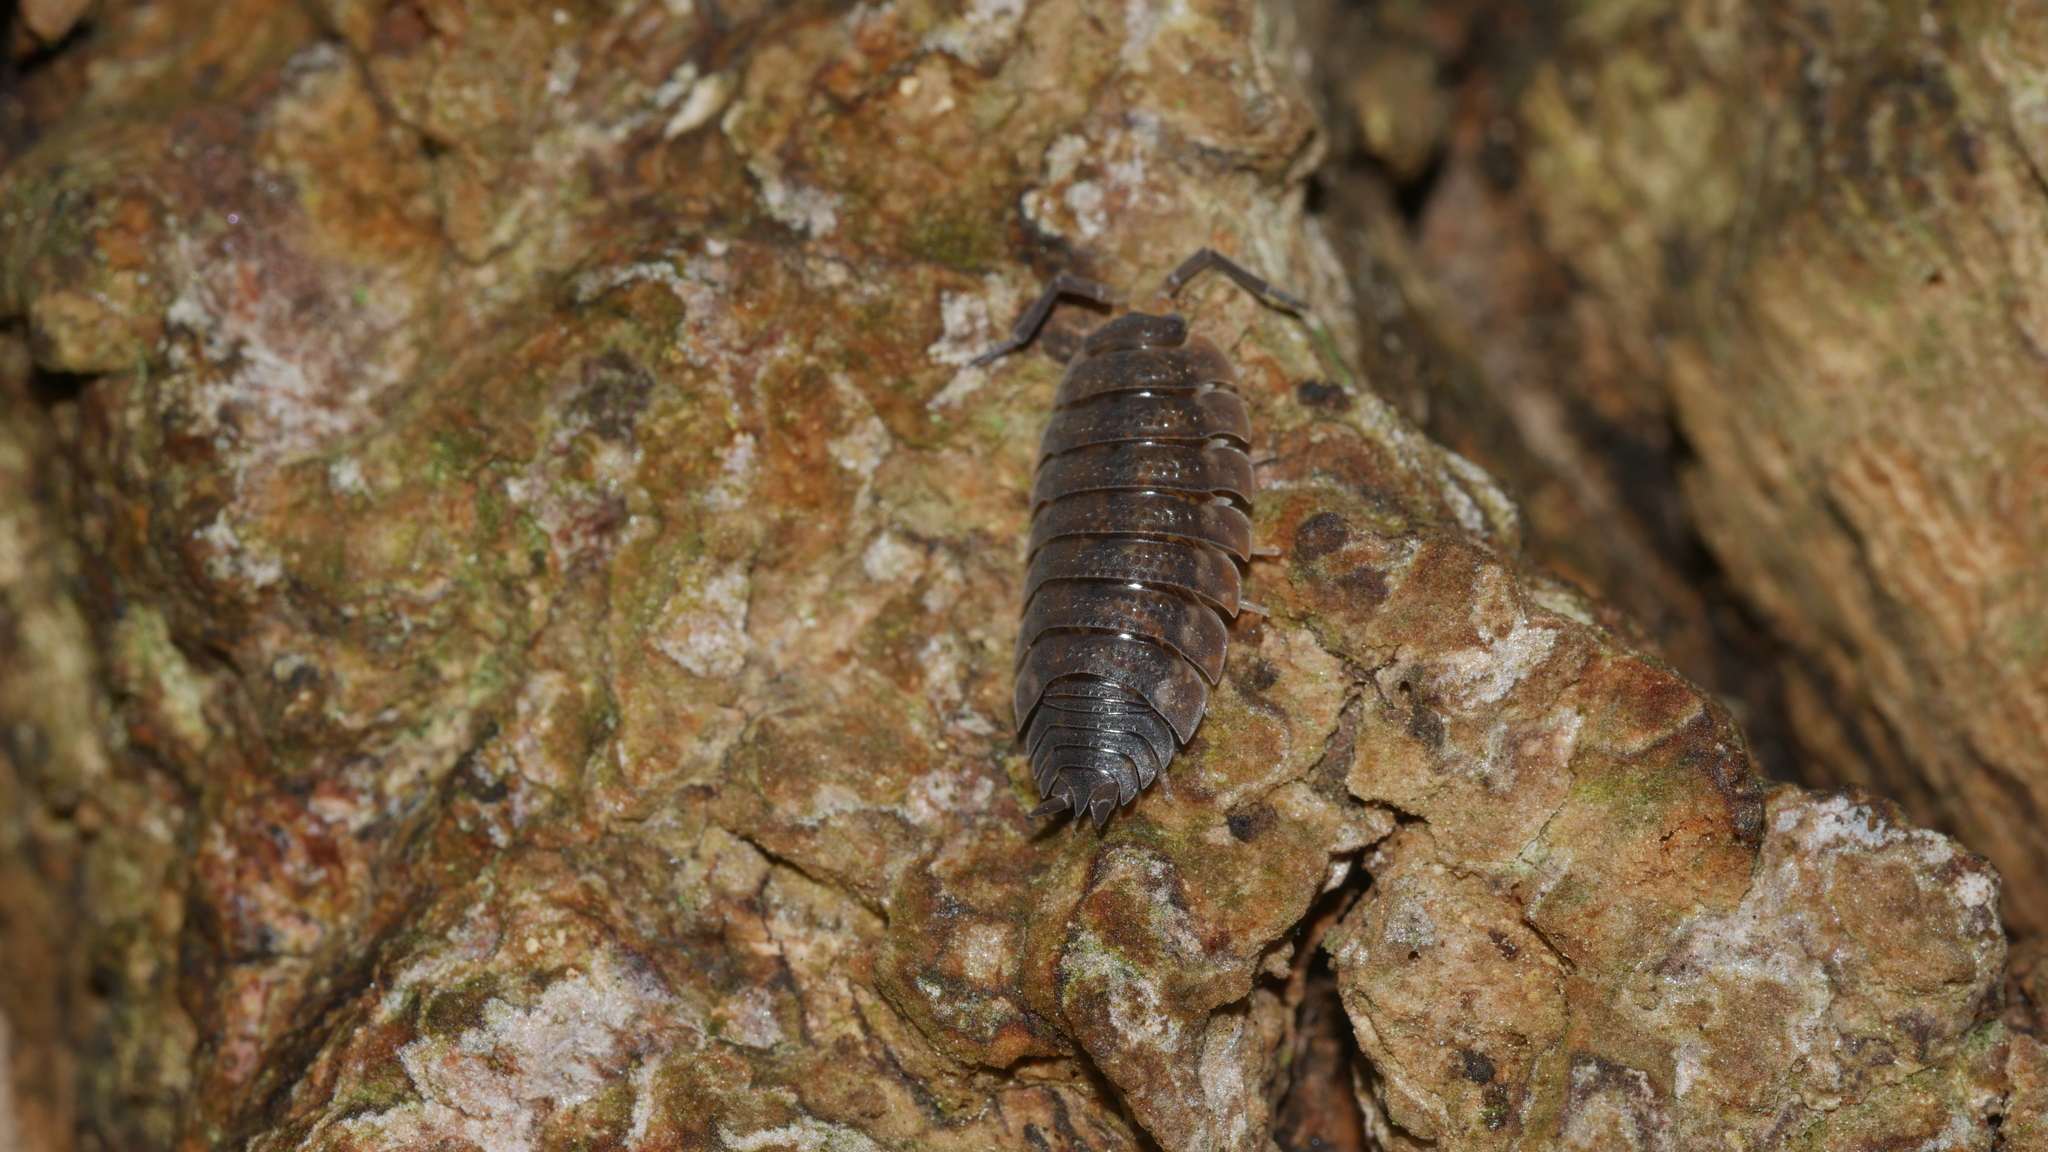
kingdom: Animalia
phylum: Arthropoda
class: Malacostraca
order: Isopoda
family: Porcellionidae
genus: Porcellio
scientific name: Porcellio scaber
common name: Common rough woodlouse
